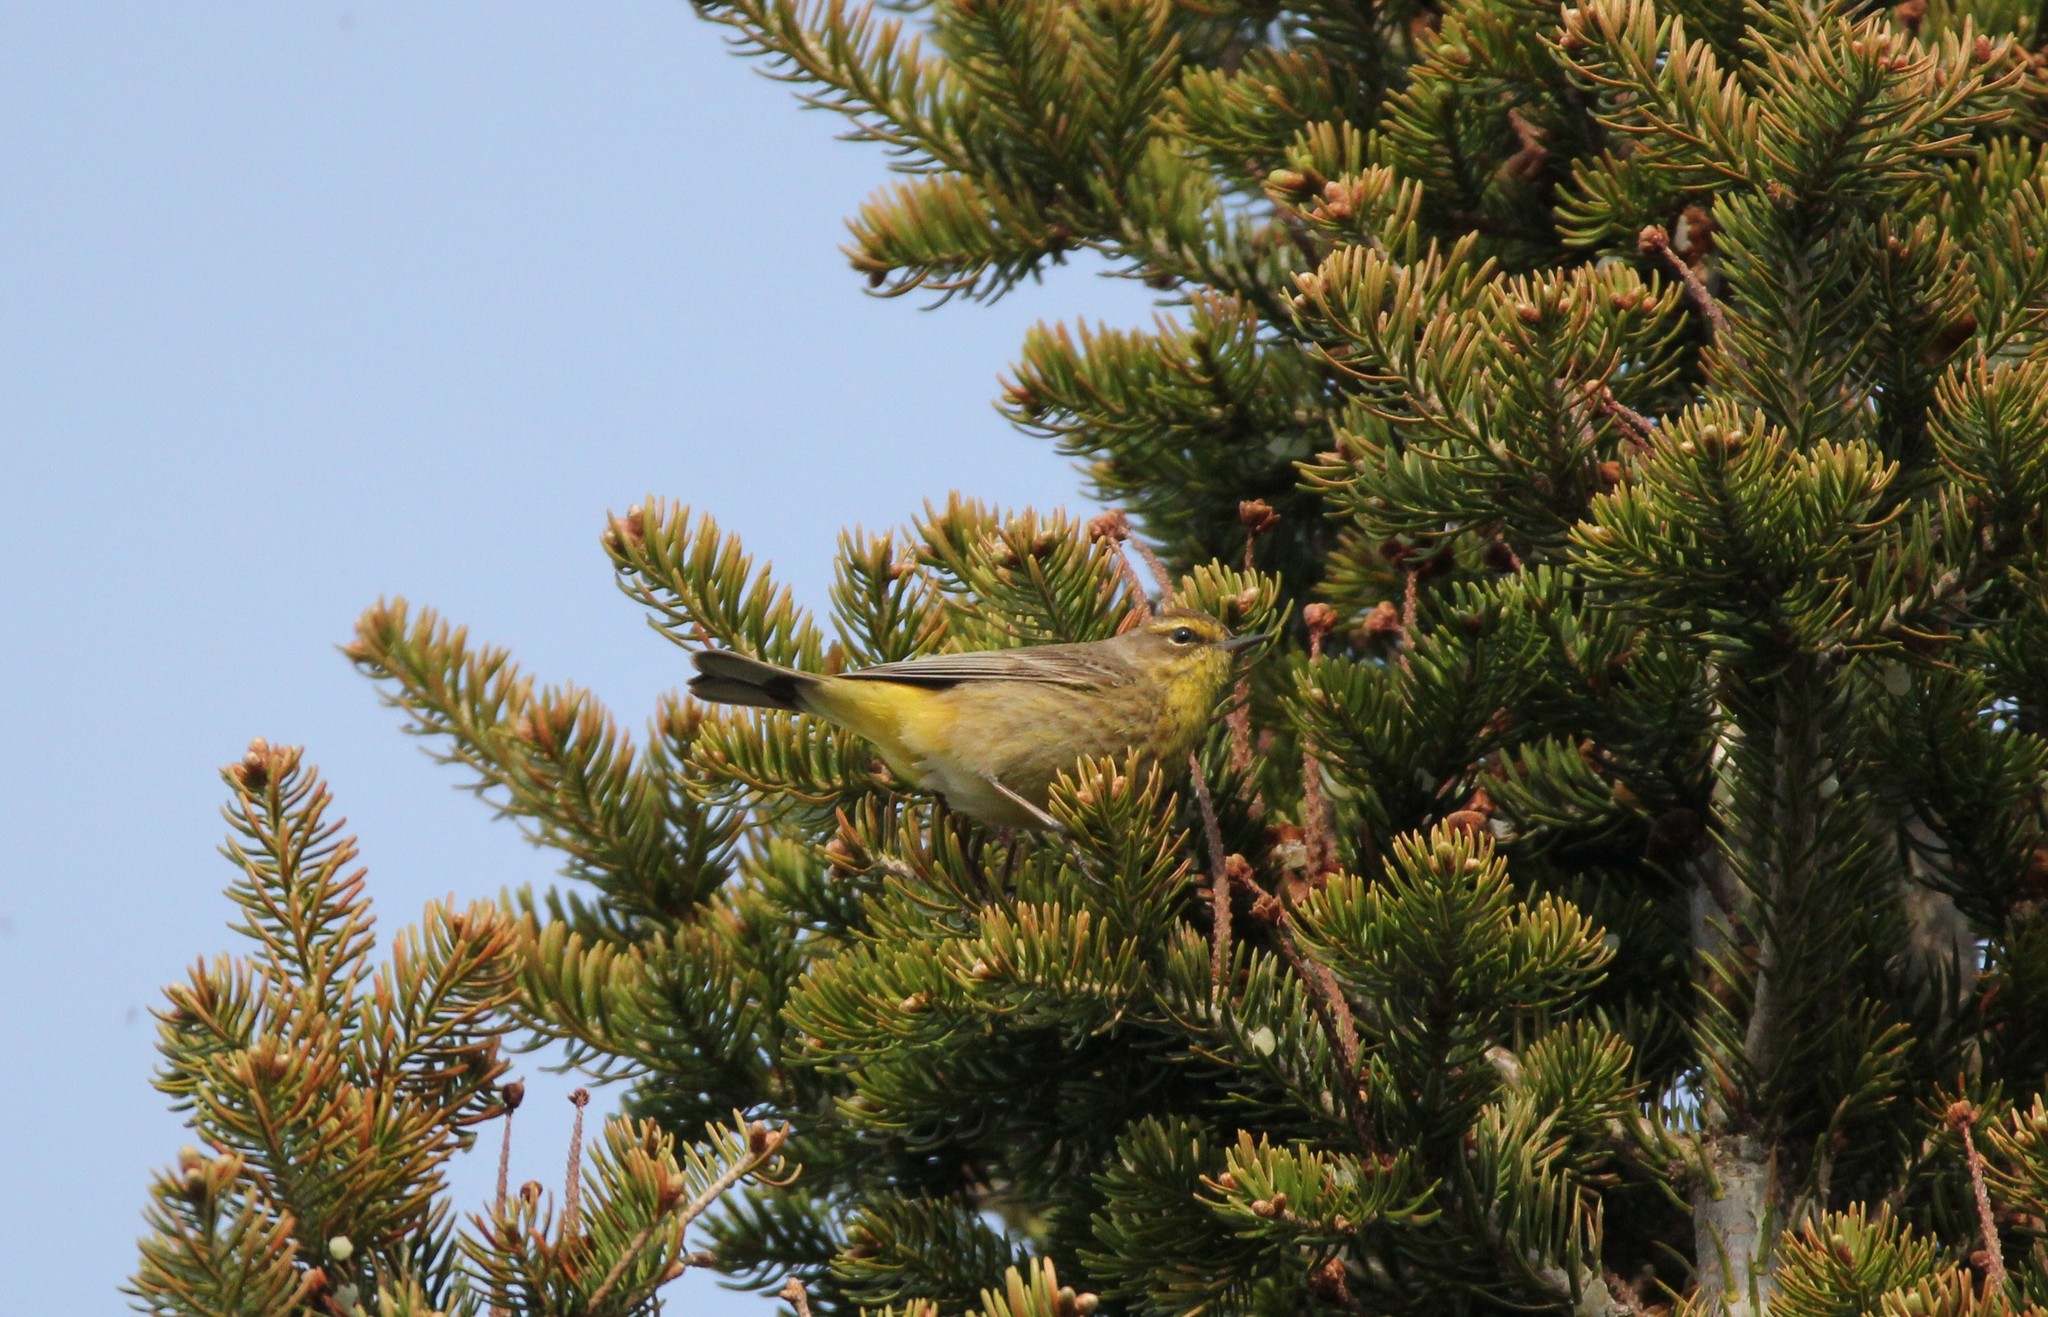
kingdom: Animalia
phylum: Chordata
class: Aves
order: Passeriformes
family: Parulidae
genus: Setophaga
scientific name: Setophaga palmarum
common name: Palm warbler
